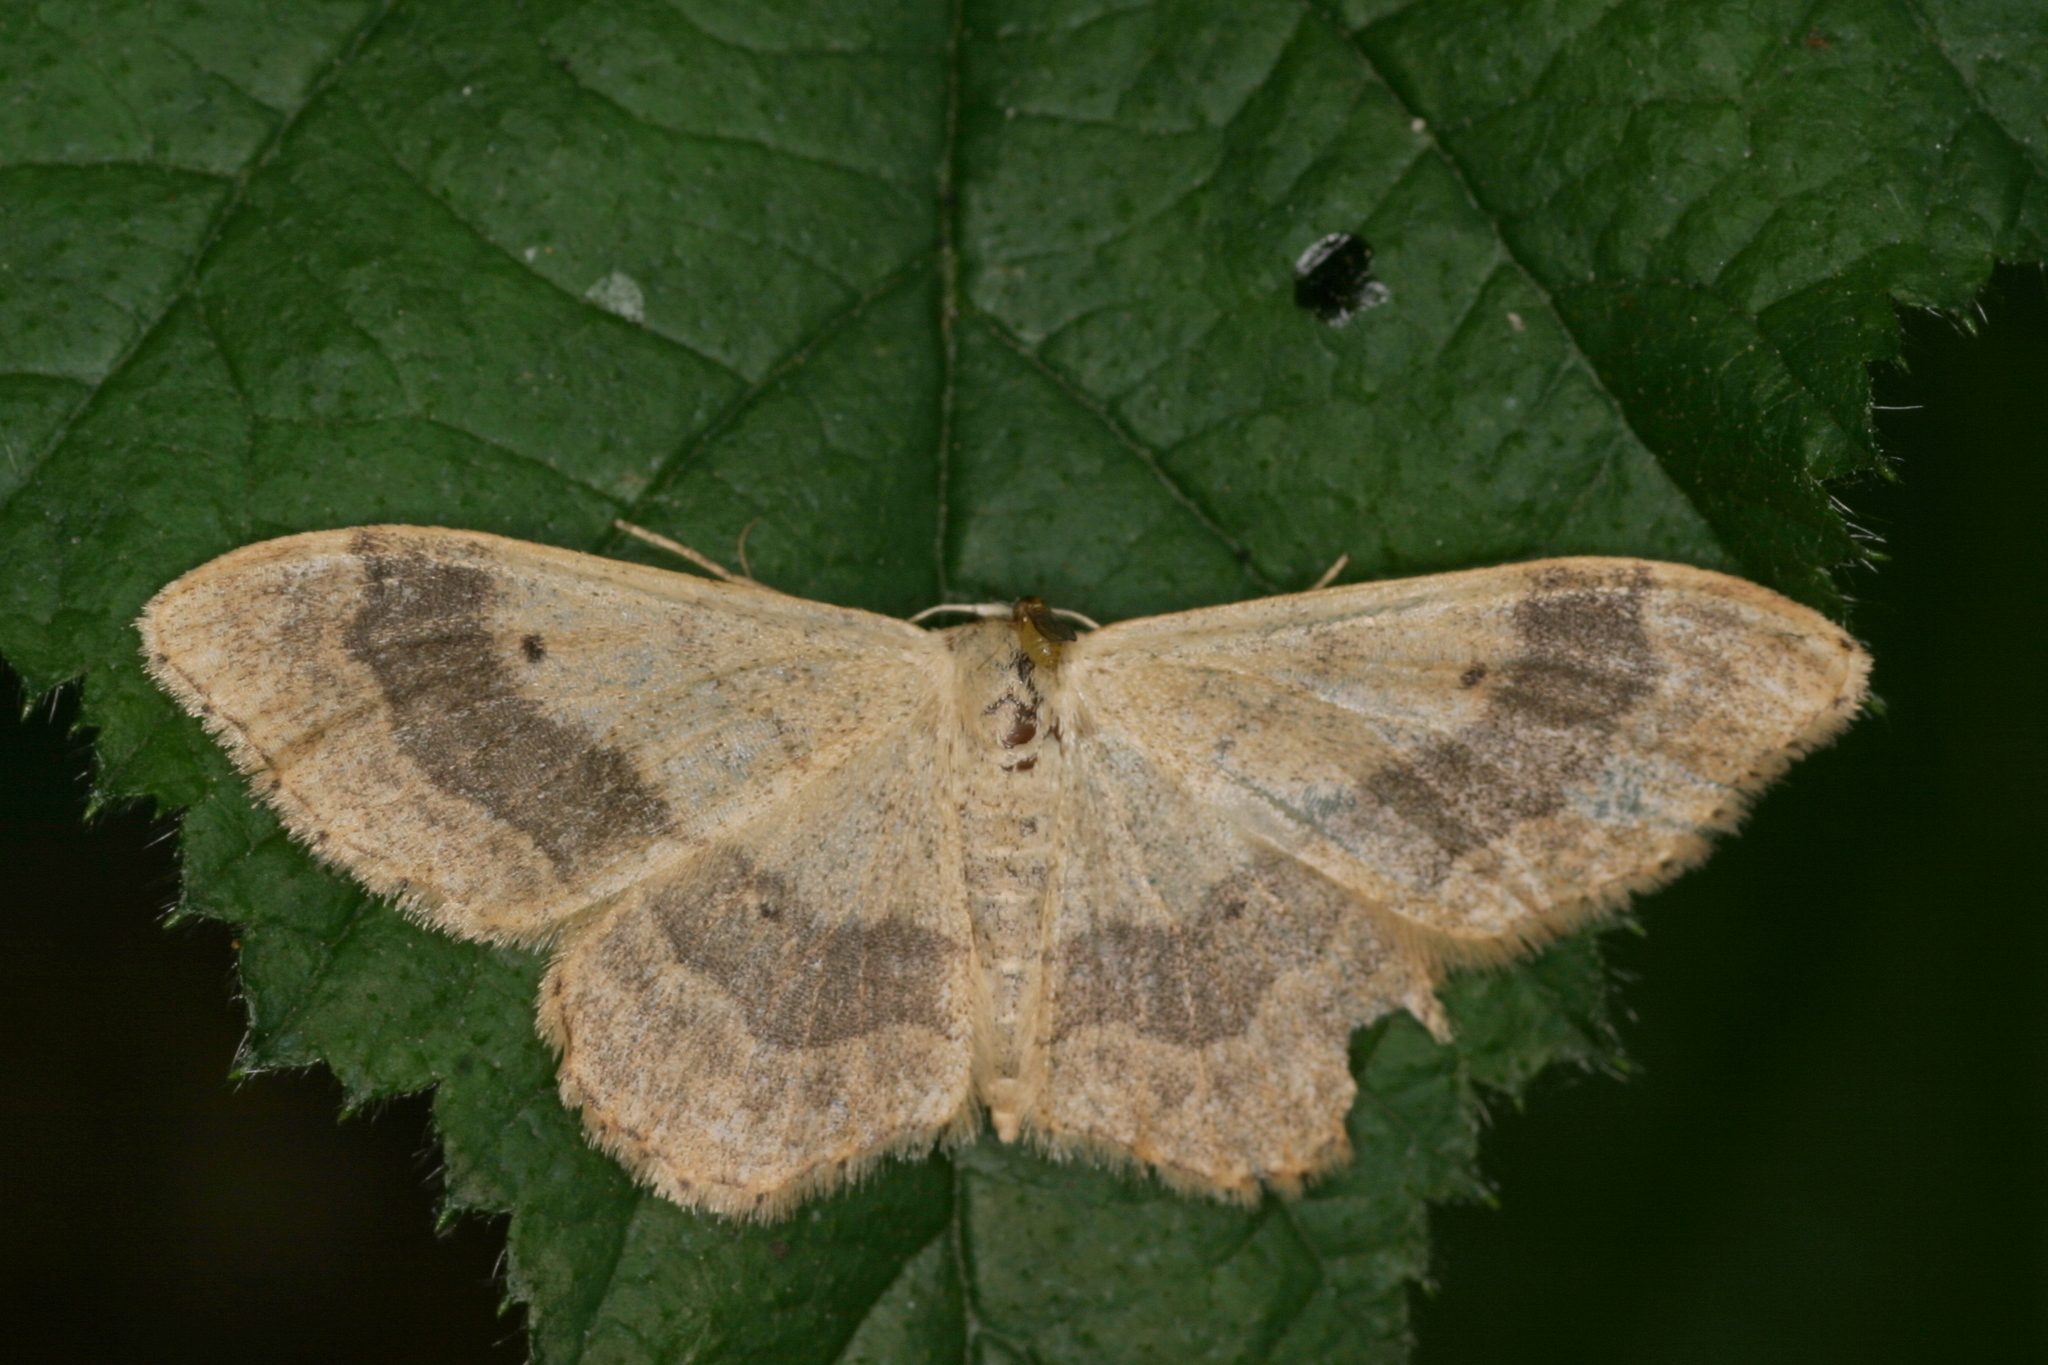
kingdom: Animalia
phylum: Arthropoda
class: Insecta
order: Lepidoptera
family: Geometridae
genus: Idaea
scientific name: Idaea aversata
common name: Riband wave
